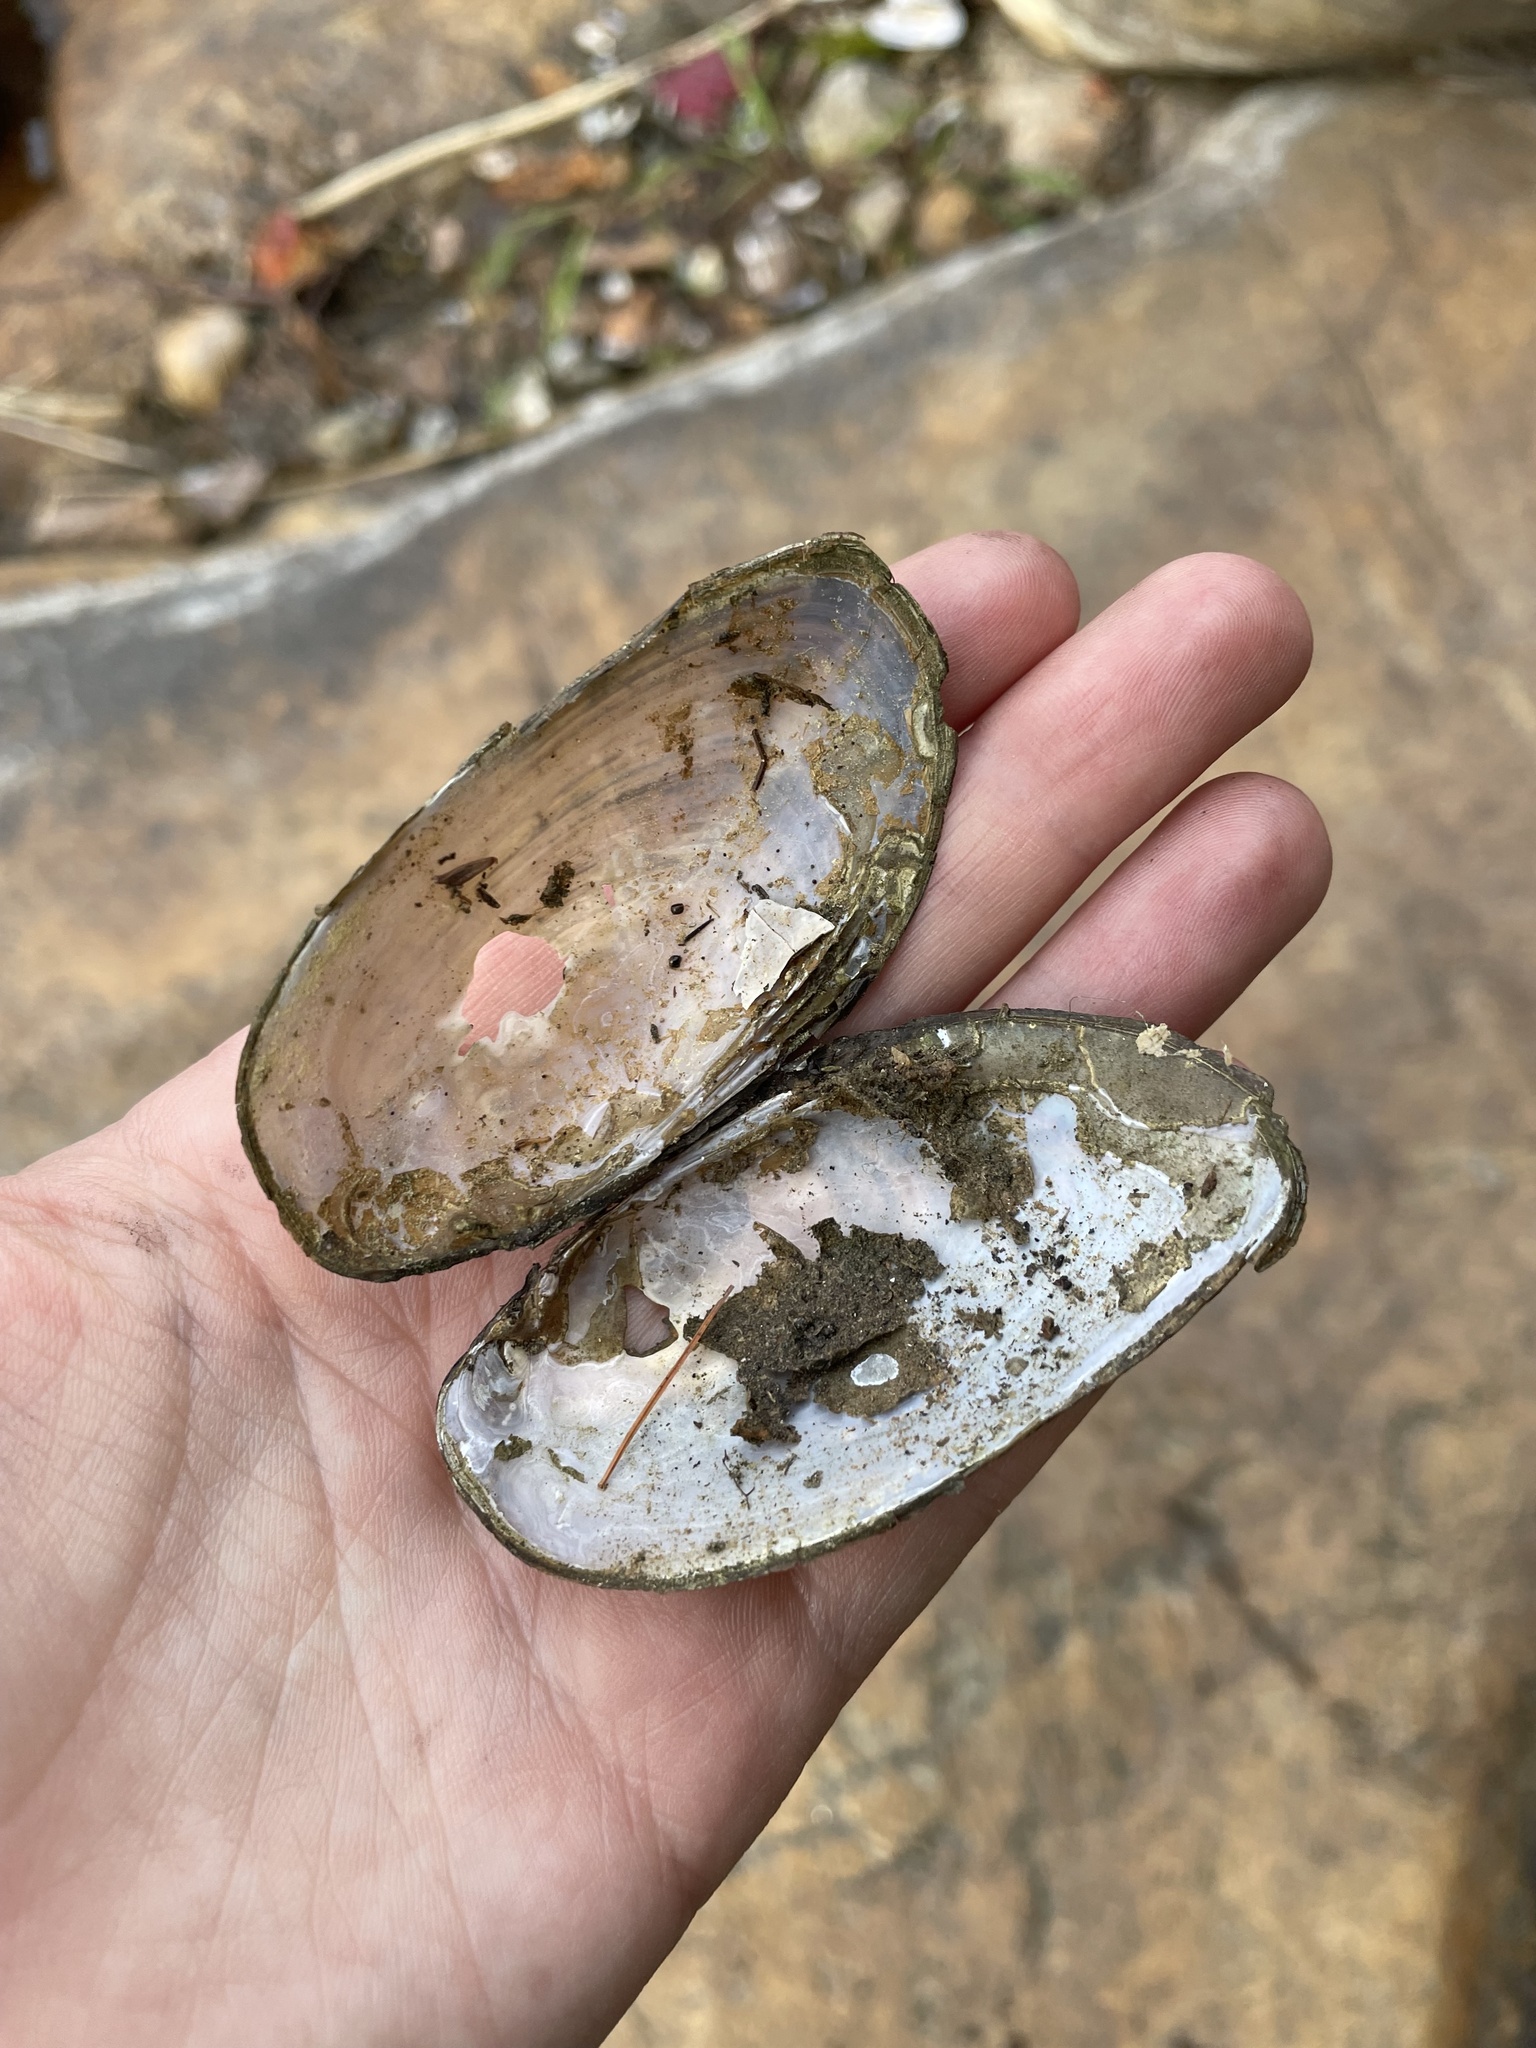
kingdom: Animalia
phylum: Mollusca
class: Bivalvia
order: Unionida
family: Unionidae
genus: Elliptio
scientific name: Elliptio complanata
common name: Eastern elliptio
